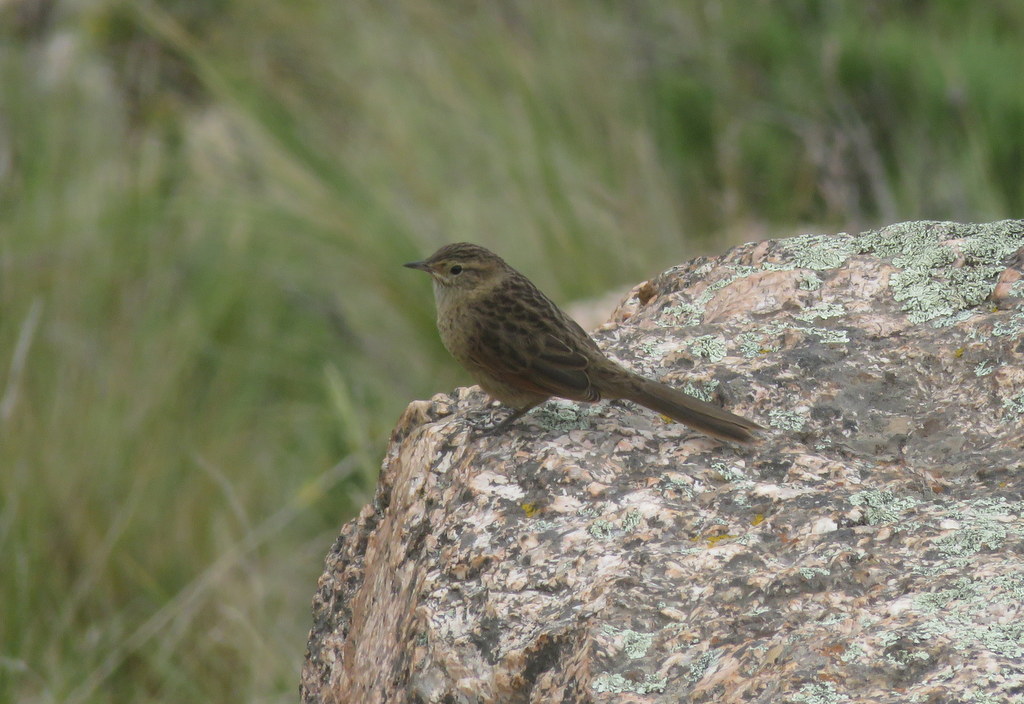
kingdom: Animalia
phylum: Chordata
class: Aves
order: Passeriformes
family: Furnariidae
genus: Asthenes
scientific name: Asthenes wyatti
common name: Streak-backed canastero
